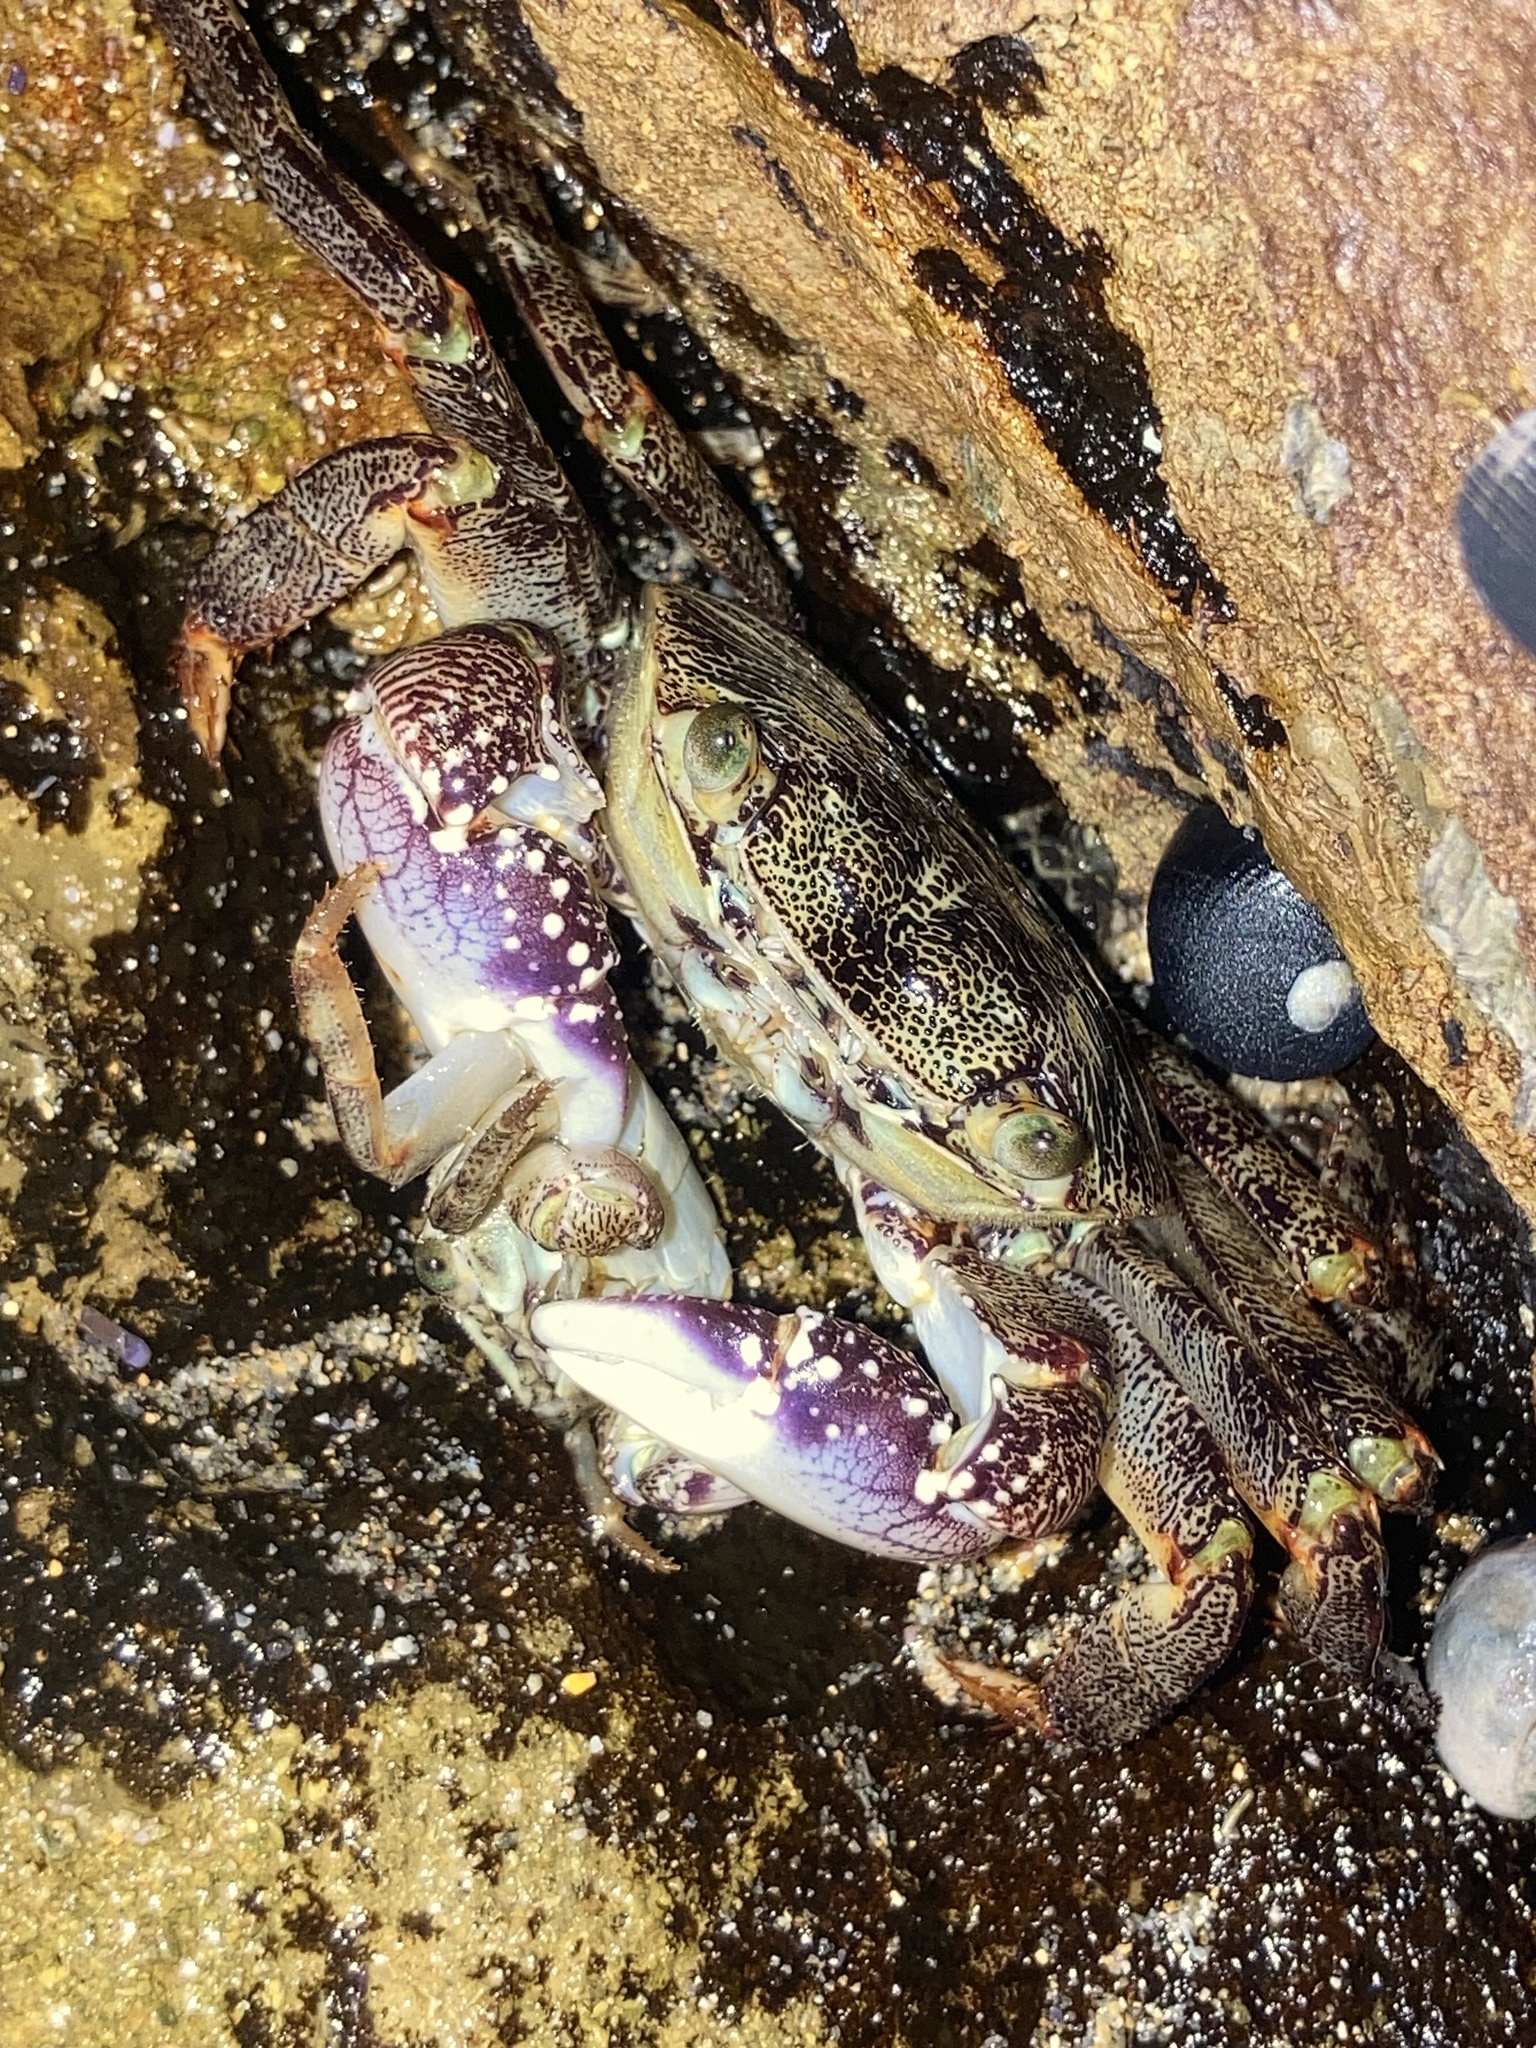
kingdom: Animalia
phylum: Arthropoda
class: Malacostraca
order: Decapoda
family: Grapsidae
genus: Leptograpsus
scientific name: Leptograpsus variegatus
